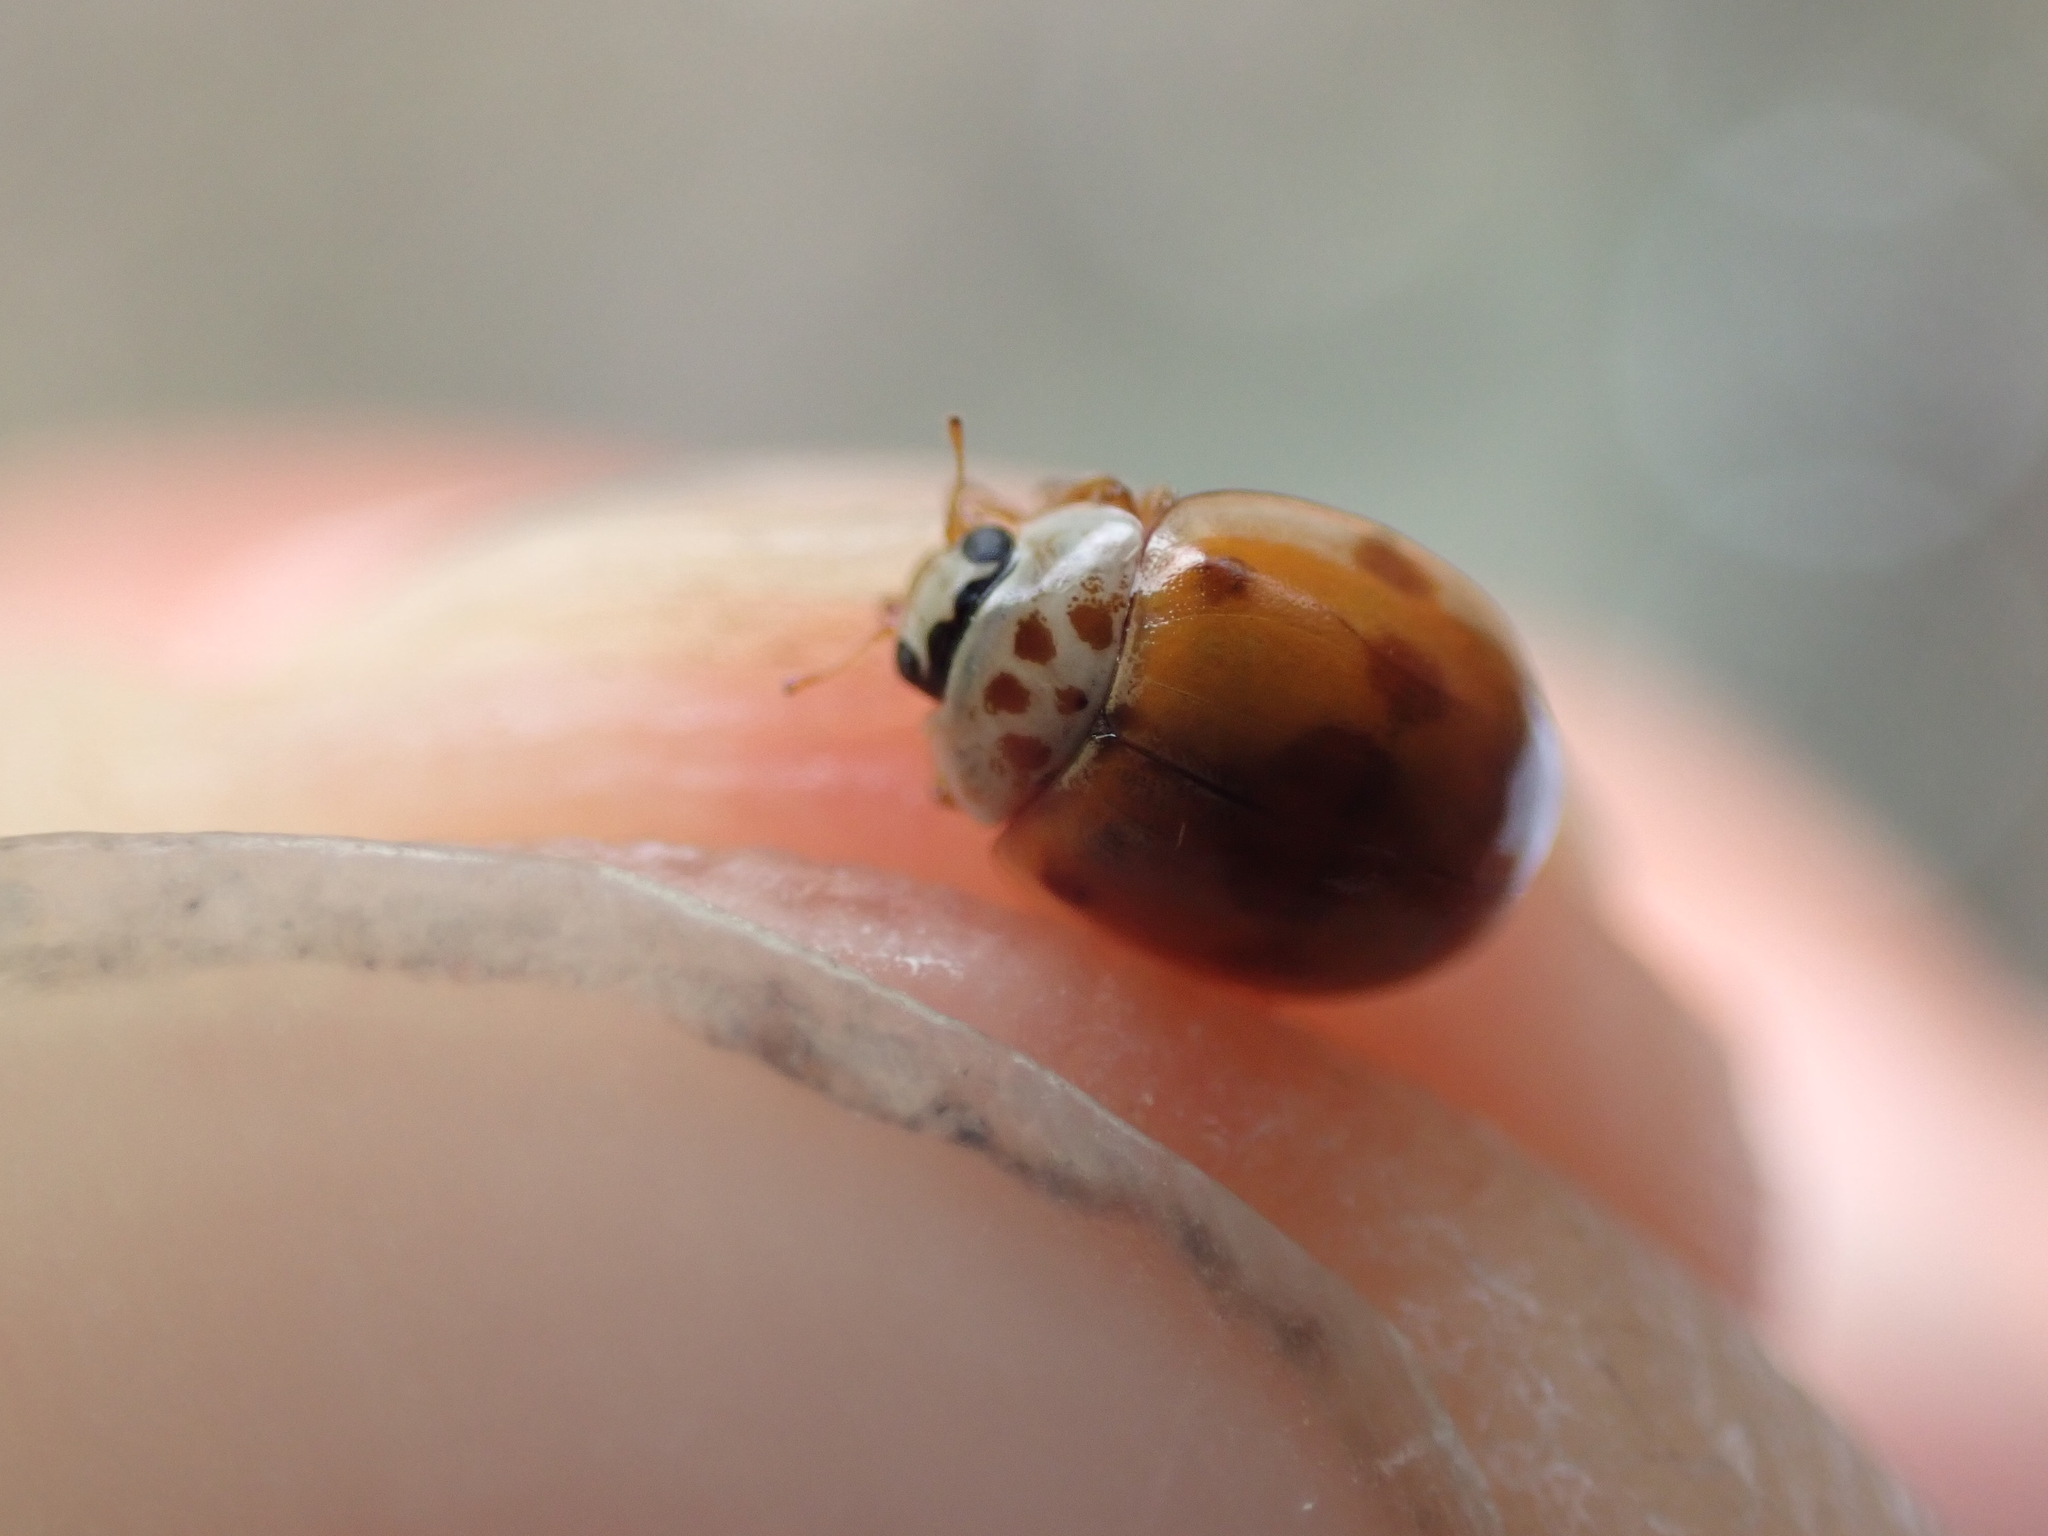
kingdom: Animalia
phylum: Arthropoda
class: Insecta
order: Coleoptera
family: Coccinellidae
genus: Adalia
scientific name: Adalia decempunctata
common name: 10-spot ladybird
